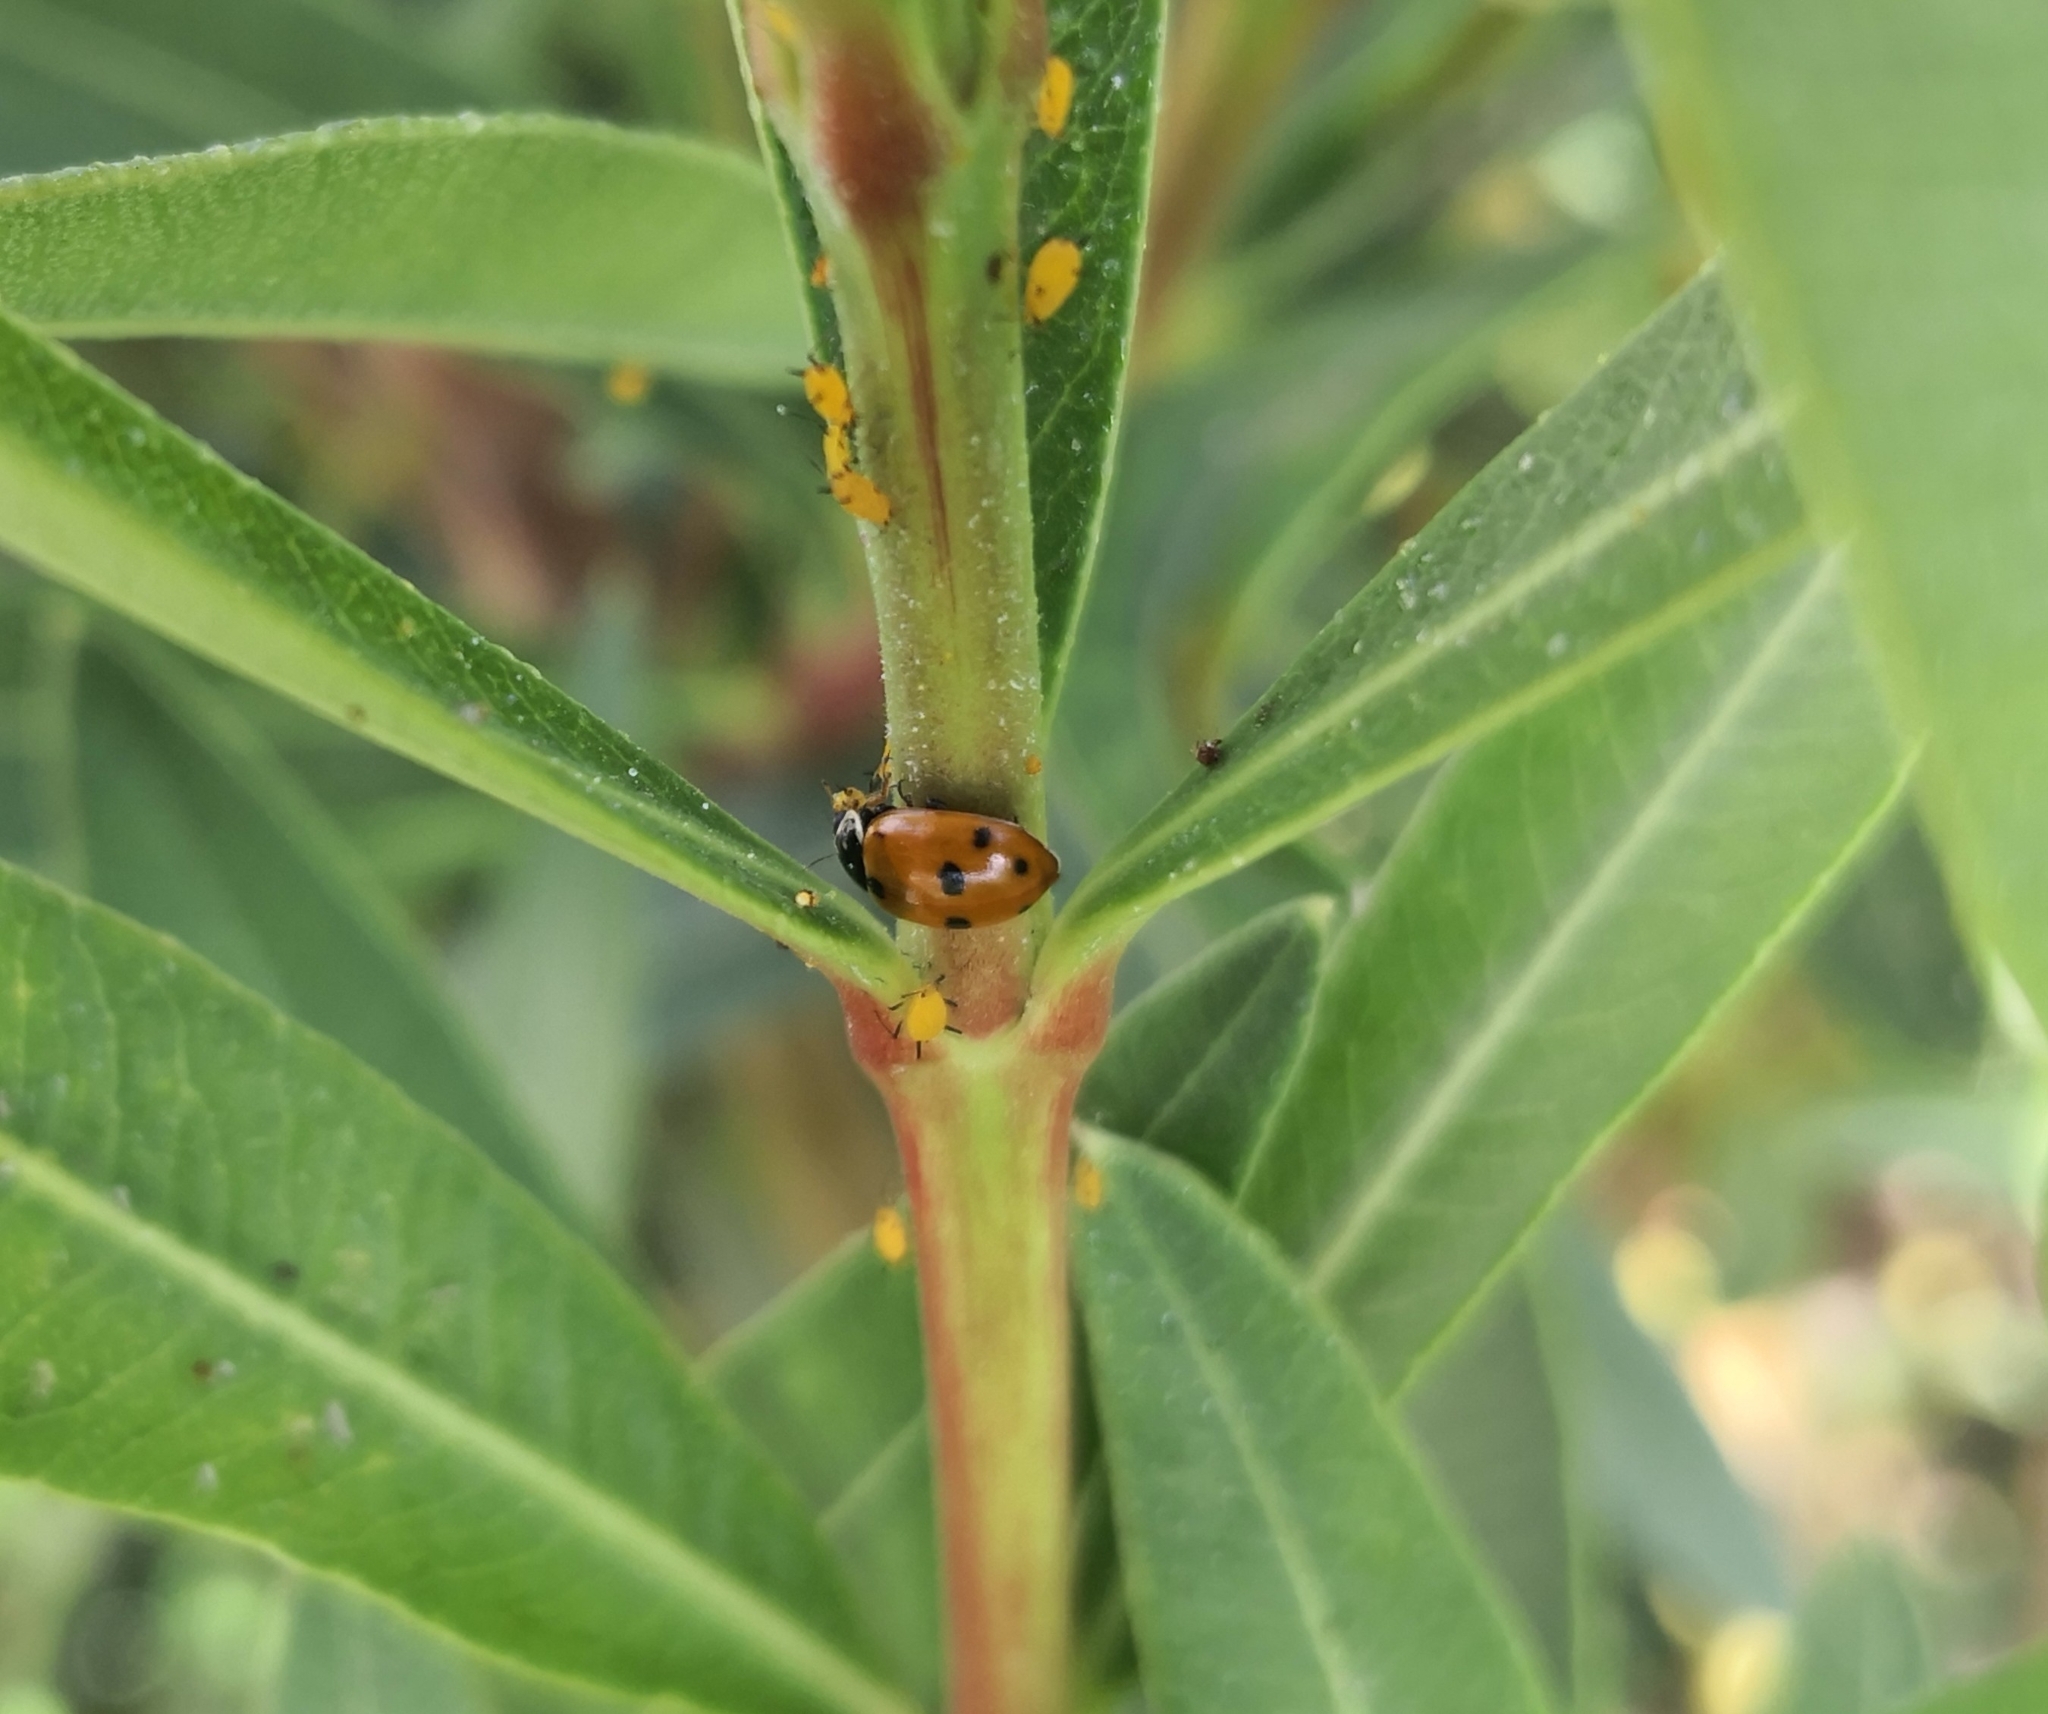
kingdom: Animalia
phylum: Arthropoda
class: Insecta
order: Coleoptera
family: Coccinellidae
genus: Hippodamia
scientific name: Hippodamia variegata
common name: Ladybird beetle
